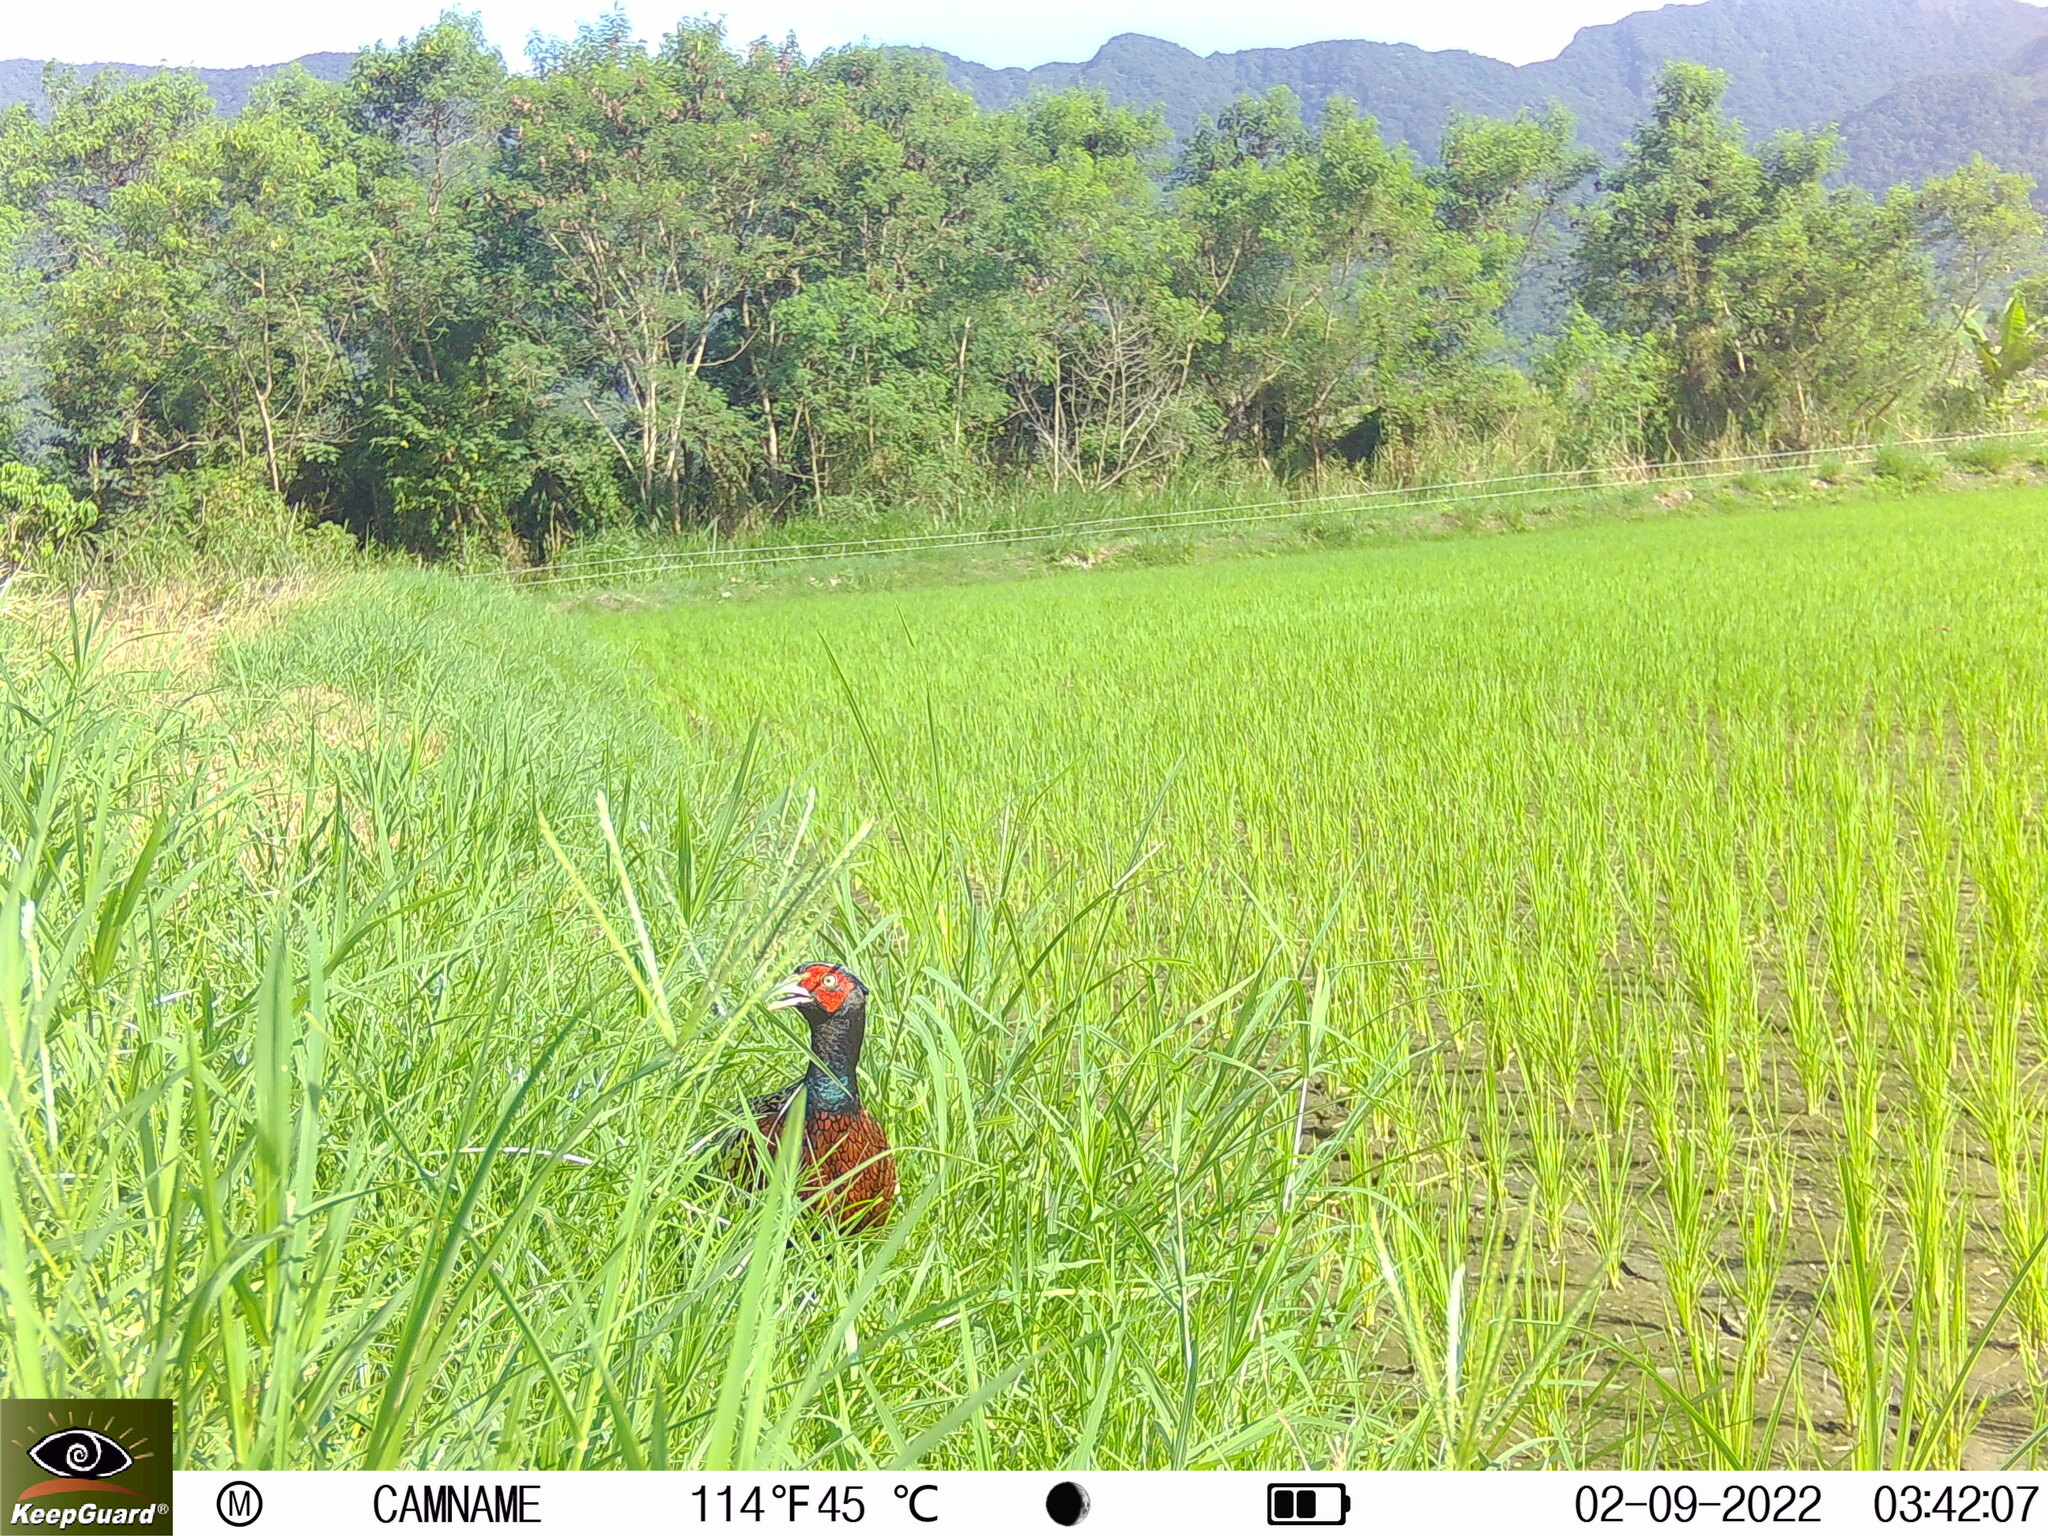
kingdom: Animalia
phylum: Chordata
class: Aves
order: Galliformes
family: Phasianidae
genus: Phasianus
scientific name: Phasianus colchicus
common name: Common pheasant
